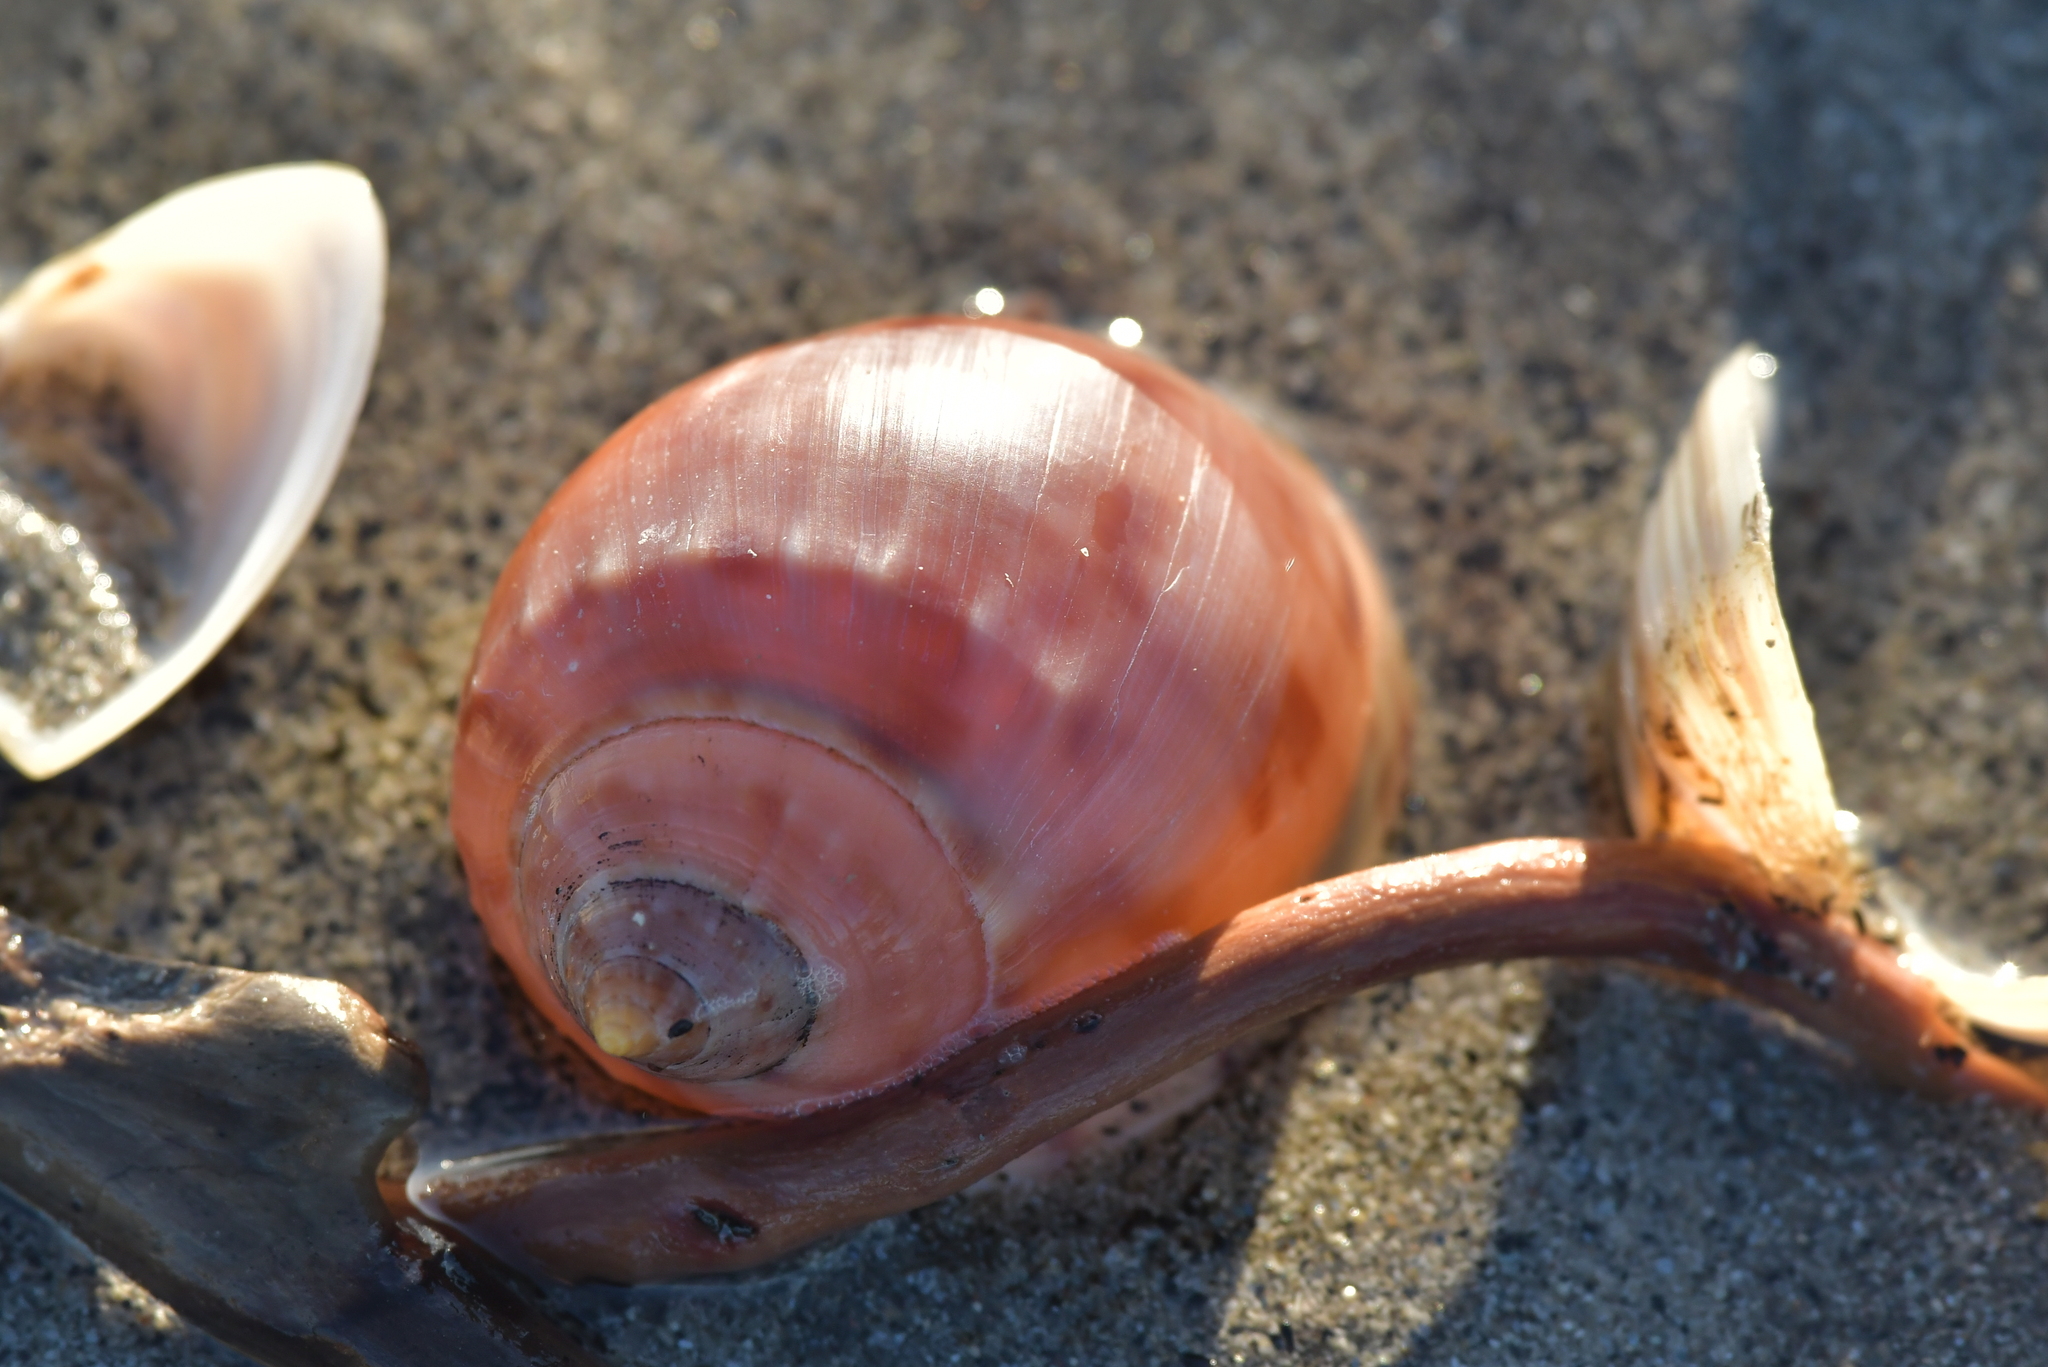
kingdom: Animalia
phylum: Mollusca
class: Gastropoda
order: Littorinimorpha
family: Cassidae
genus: Semicassis
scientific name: Semicassis pyrum
